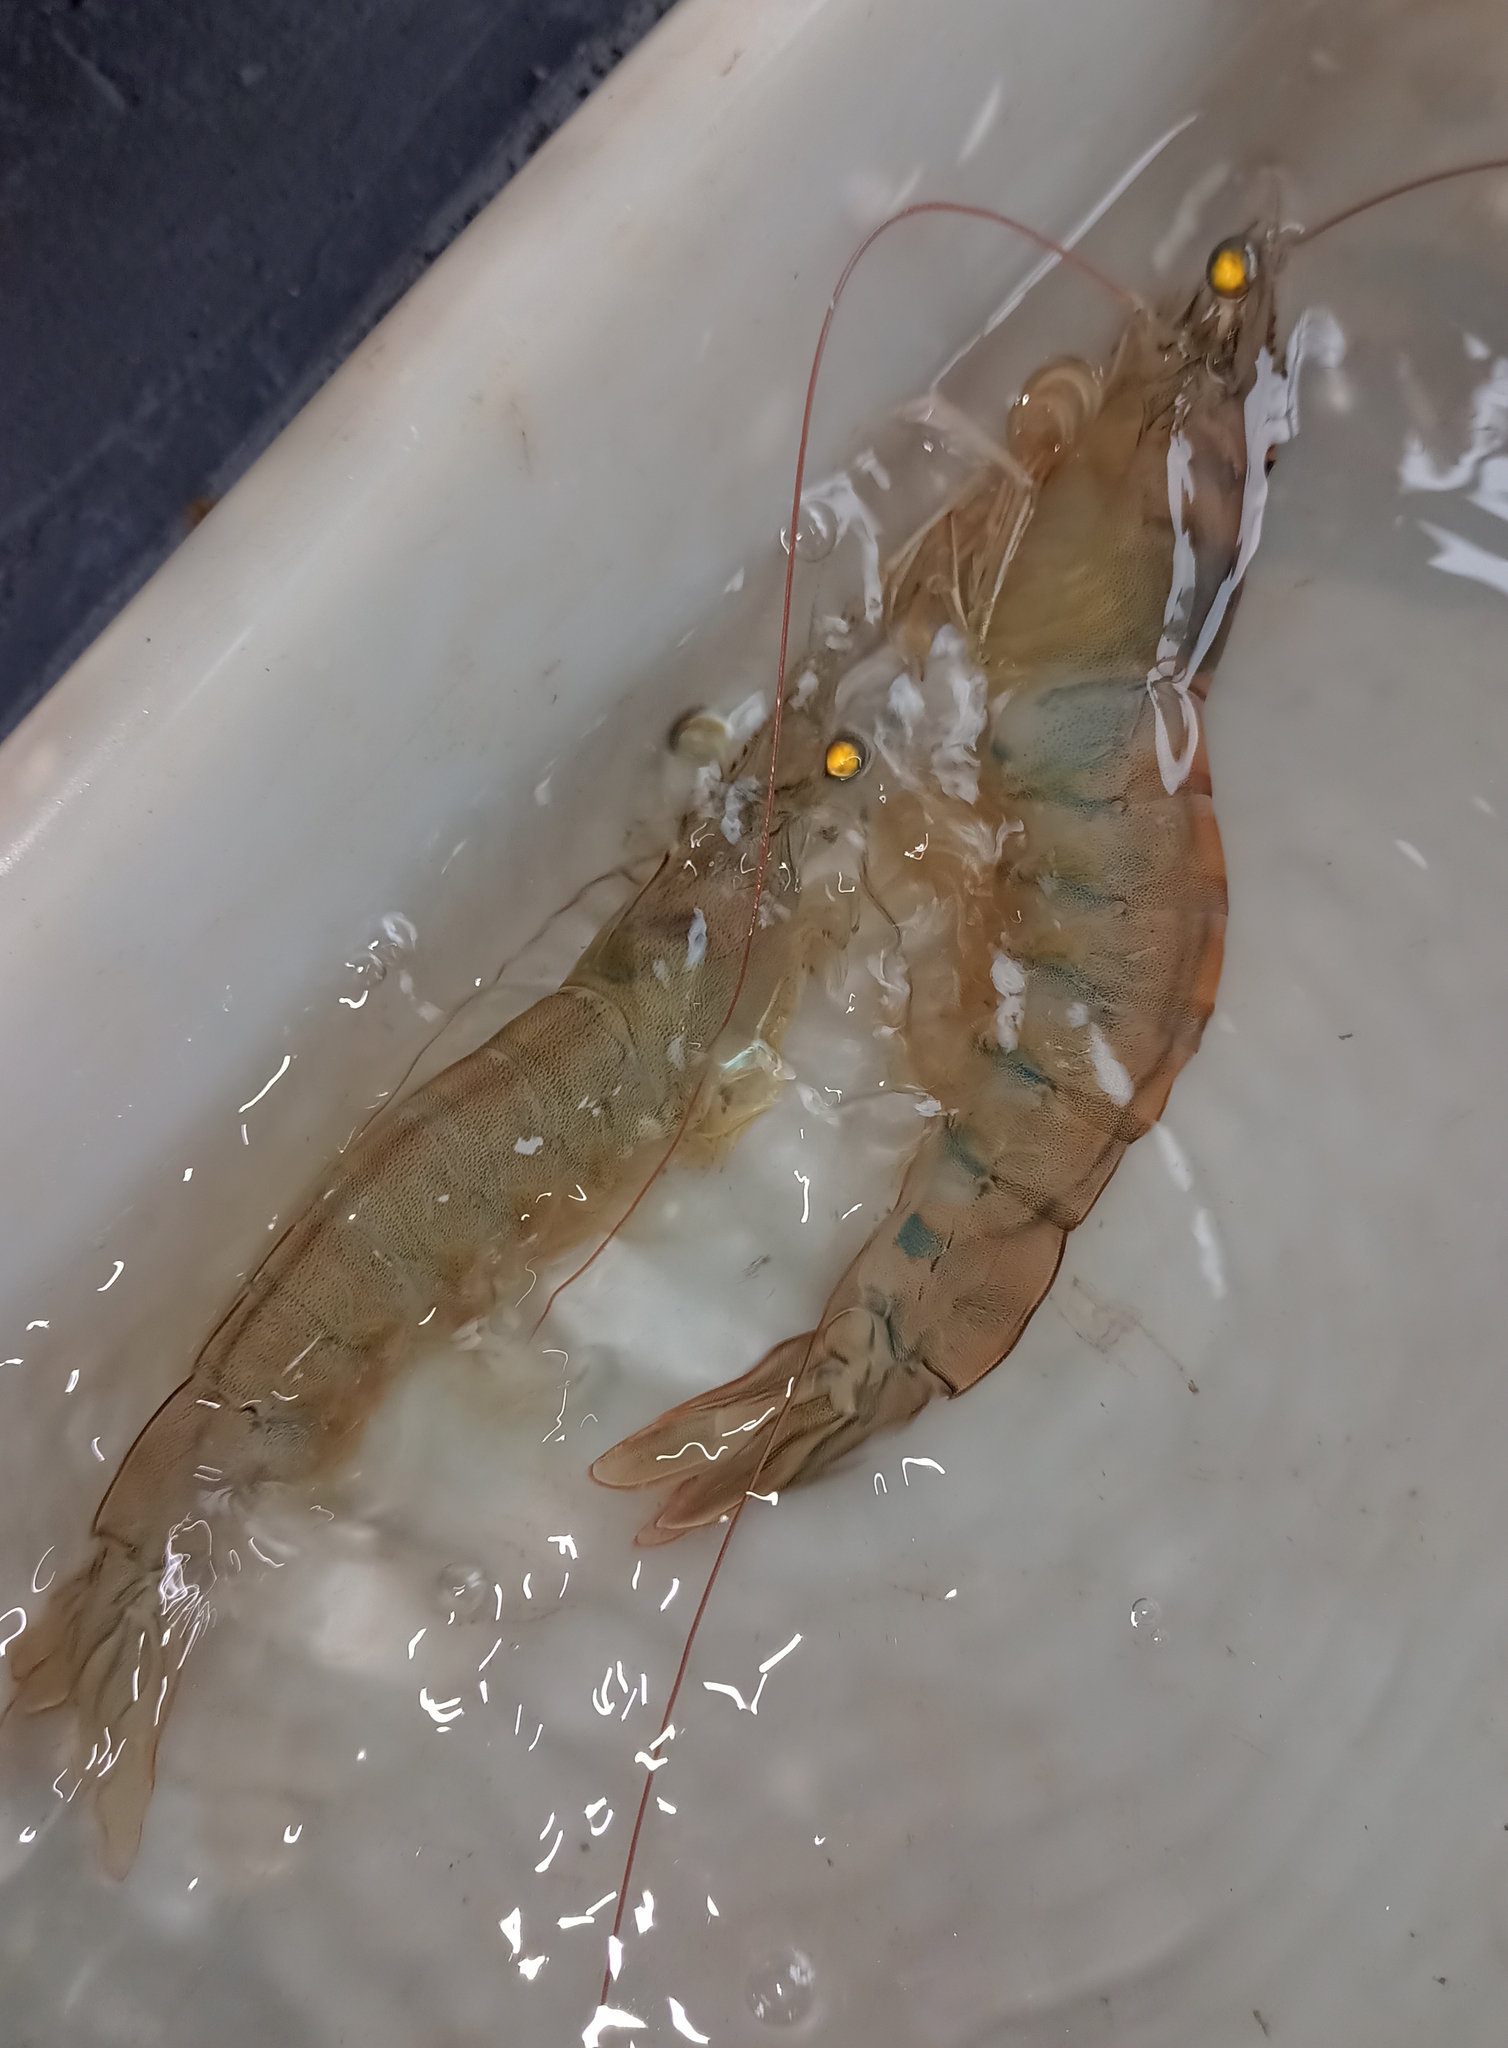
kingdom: Animalia
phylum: Arthropoda
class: Malacostraca
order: Decapoda
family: Penaeidae
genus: Penaeus
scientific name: Penaeus schmitti
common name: Southern white shrimp
